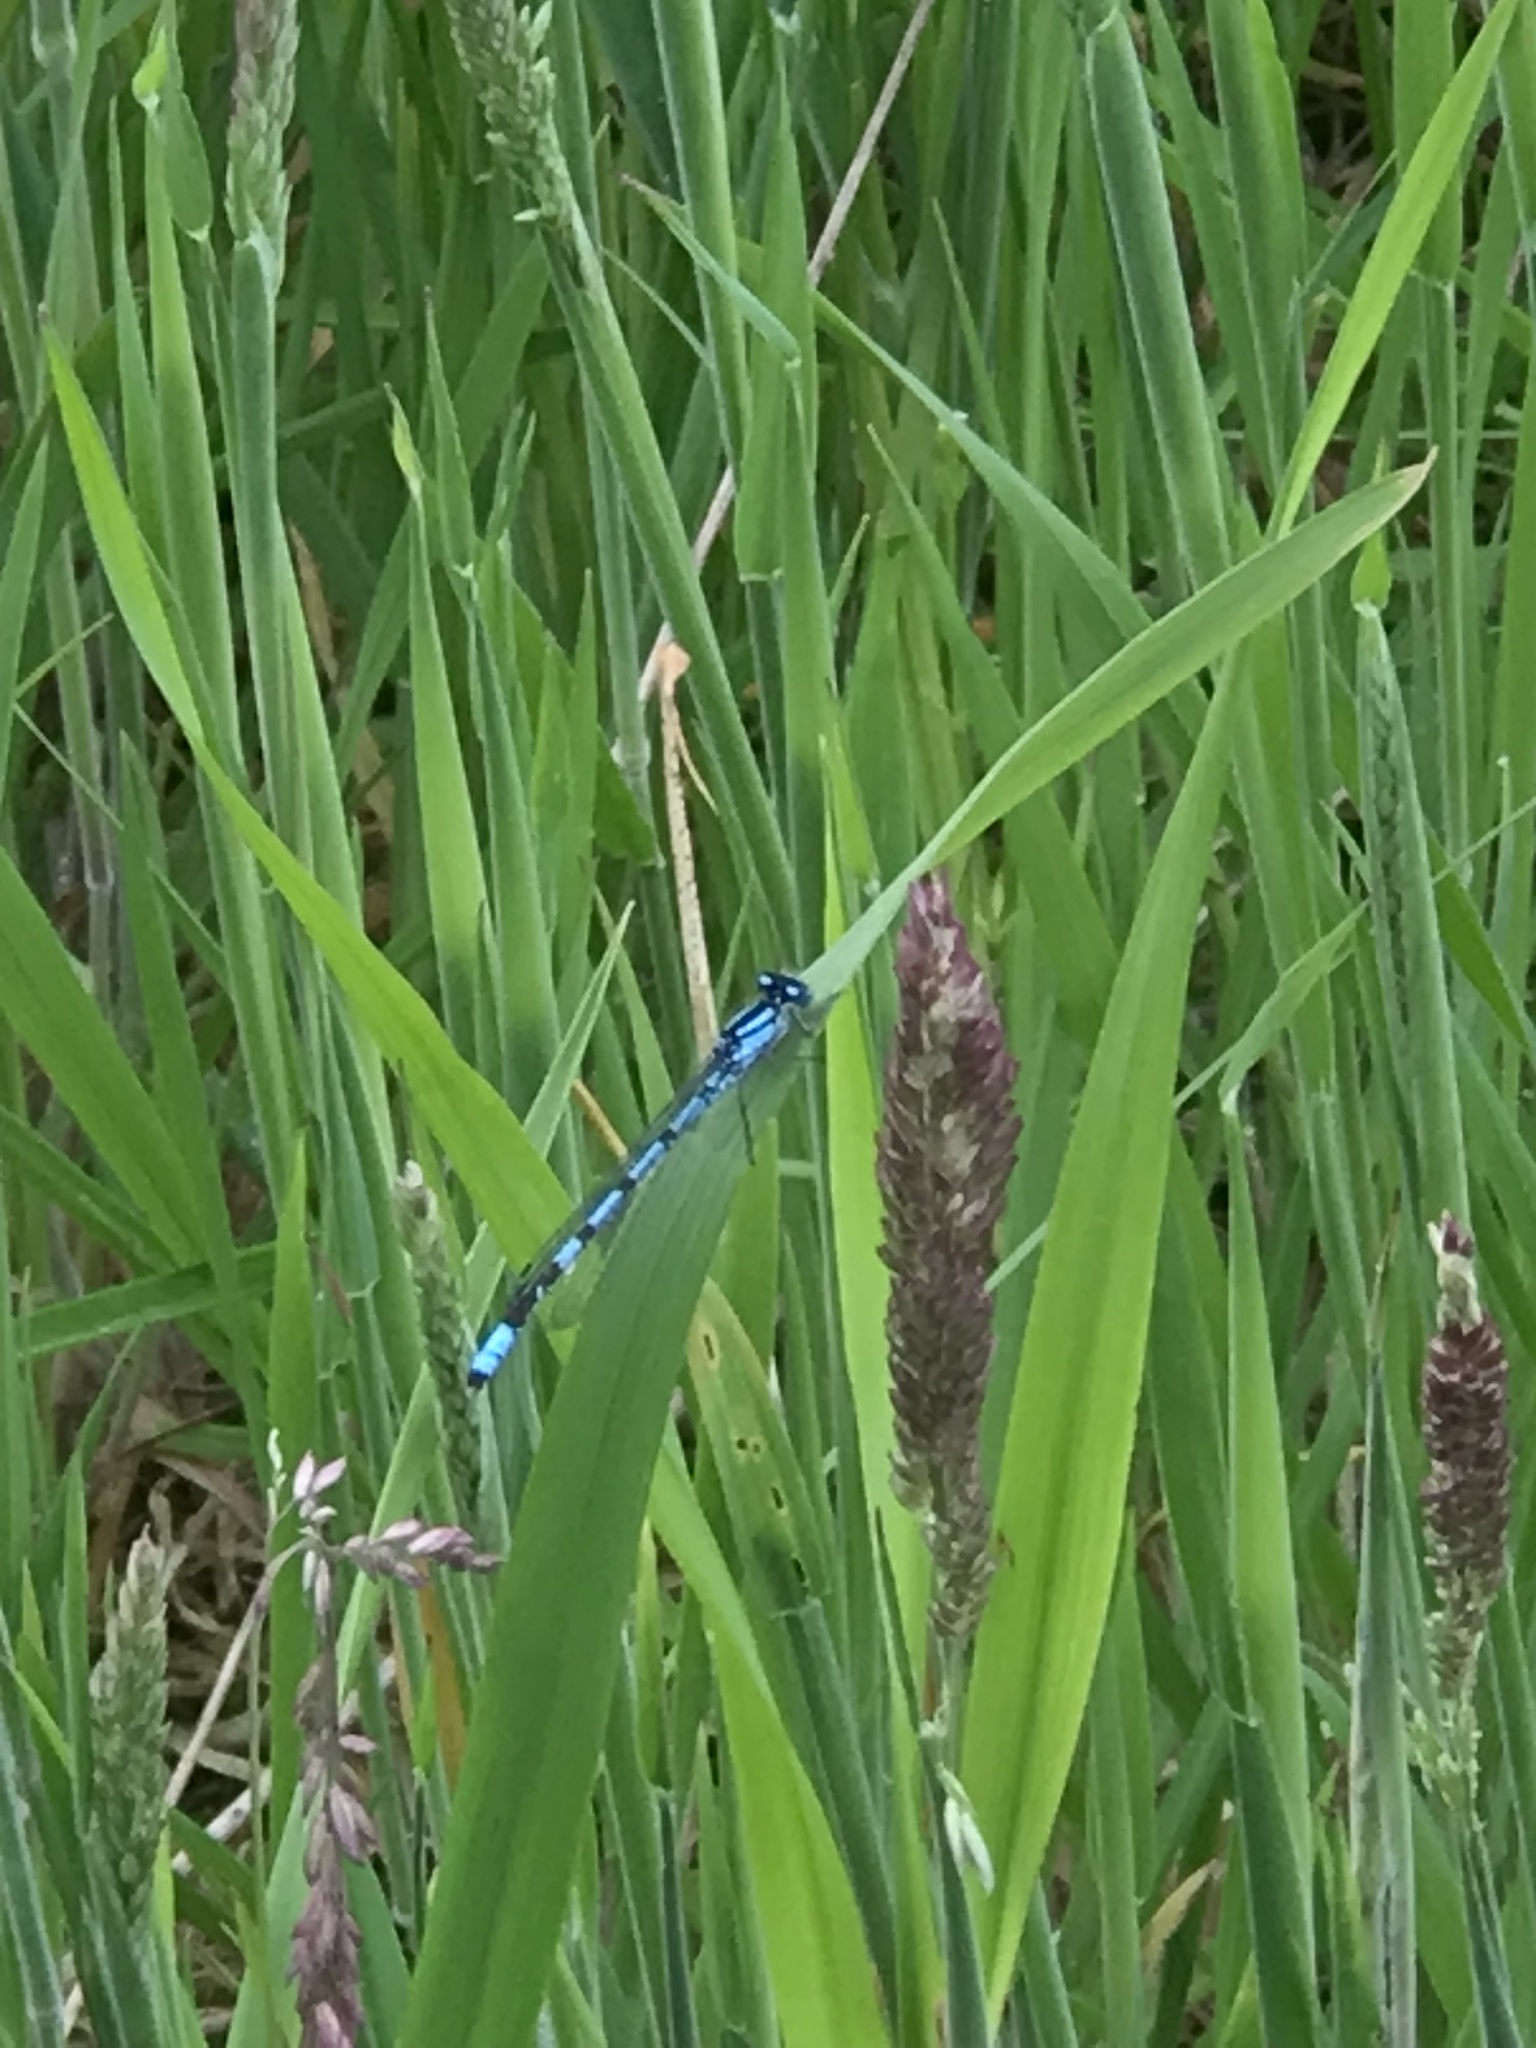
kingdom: Animalia
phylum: Arthropoda
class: Insecta
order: Odonata
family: Coenagrionidae
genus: Enallagma
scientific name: Enallagma cyathigerum
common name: Common blue damselfly
